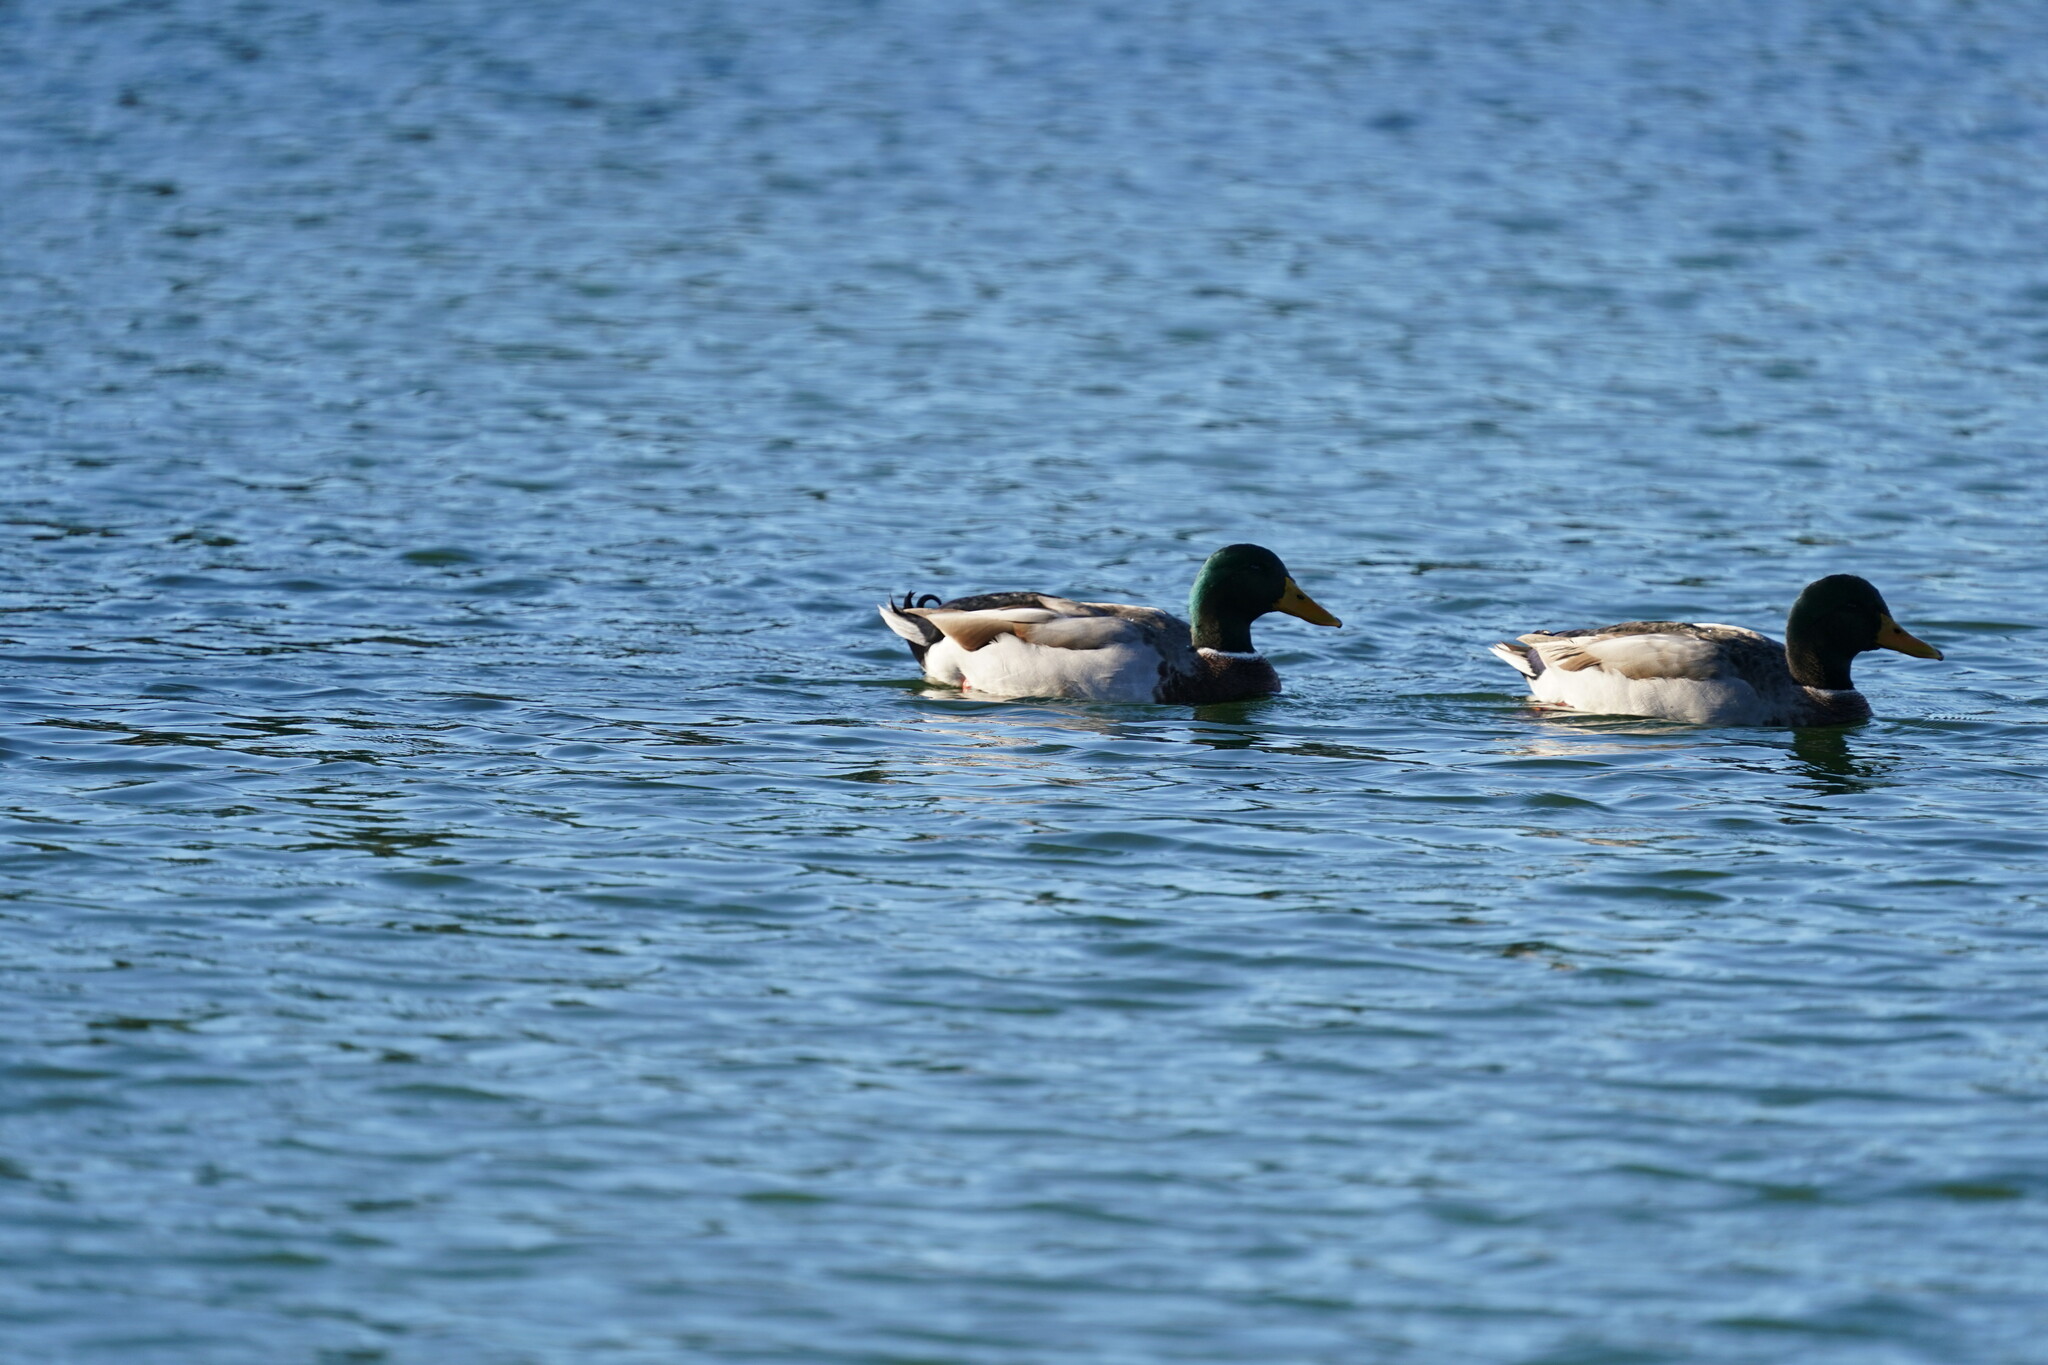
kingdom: Animalia
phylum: Chordata
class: Aves
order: Anseriformes
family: Anatidae
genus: Anas
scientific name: Anas platyrhynchos
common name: Mallard
